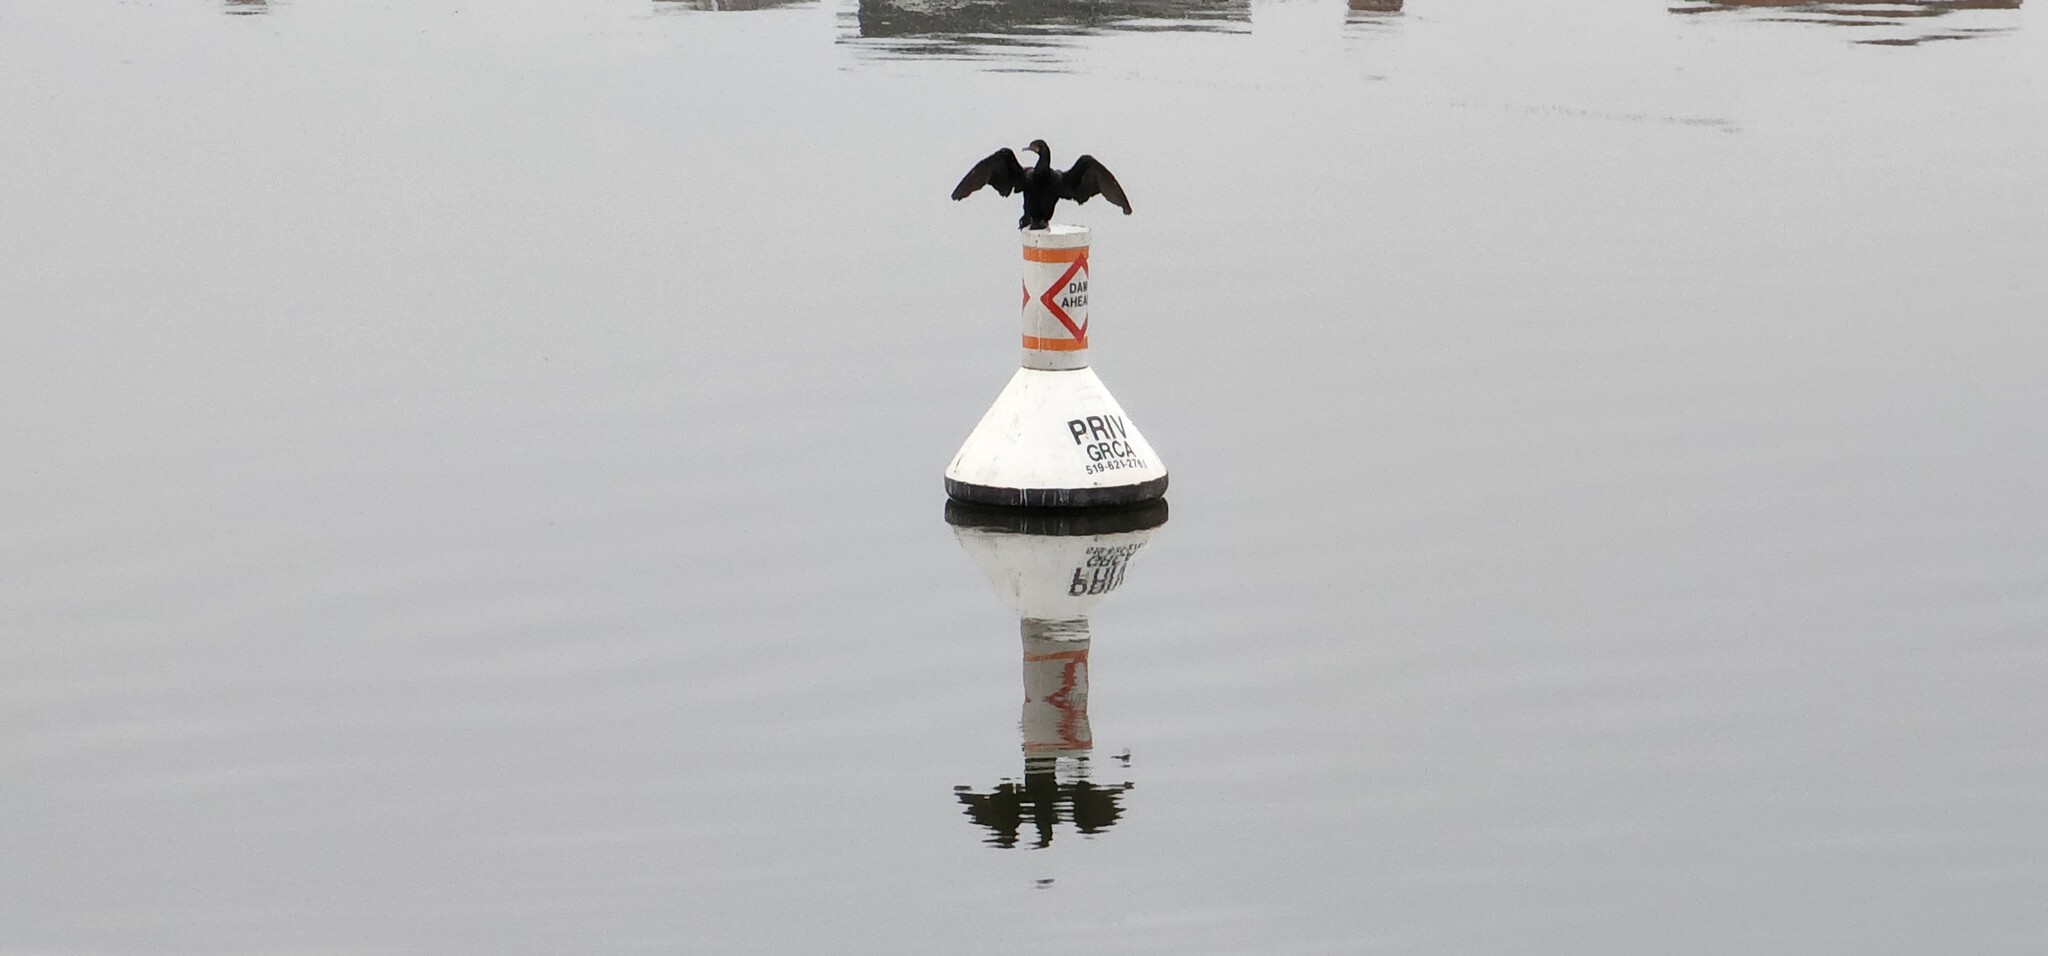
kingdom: Animalia
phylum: Chordata
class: Aves
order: Suliformes
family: Phalacrocoracidae
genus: Phalacrocorax
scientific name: Phalacrocorax auritus
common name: Double-crested cormorant
